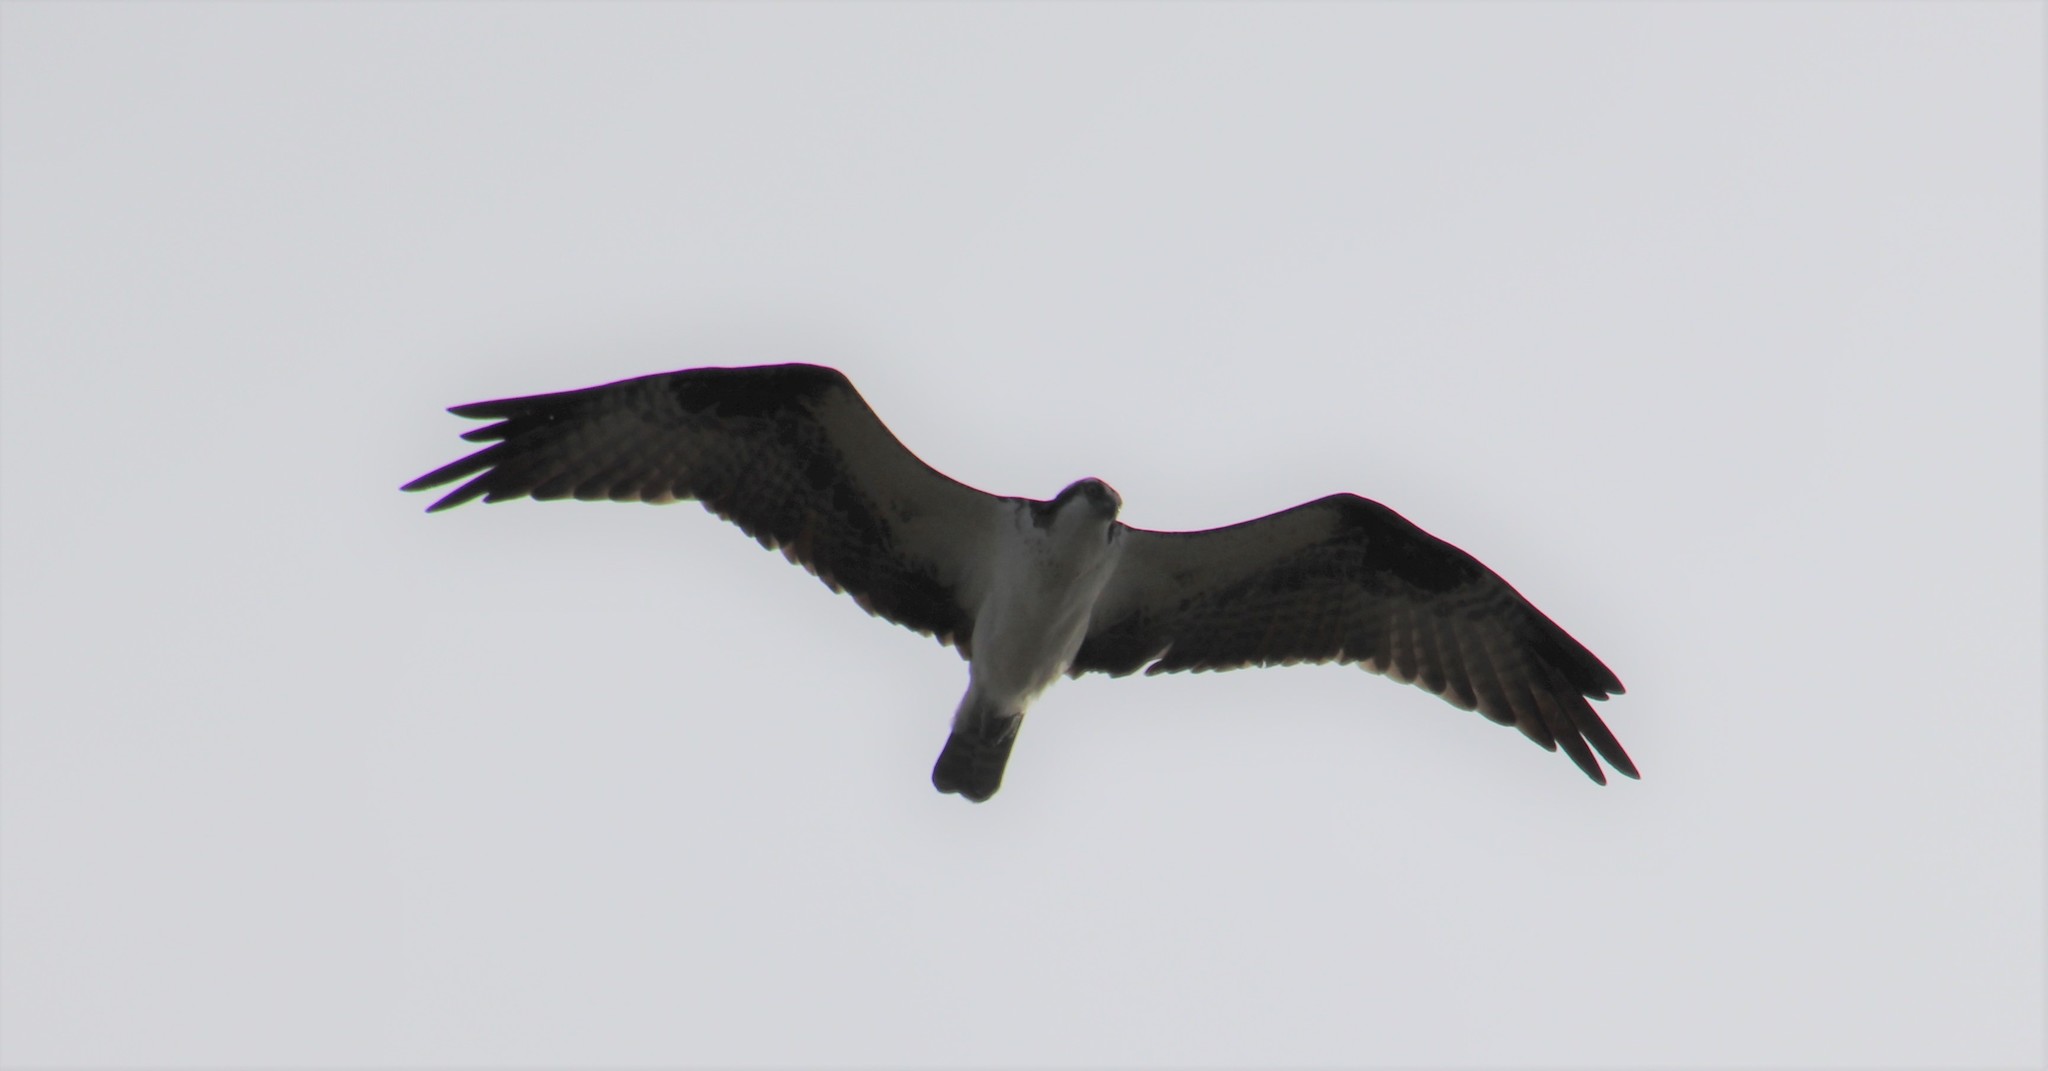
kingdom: Animalia
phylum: Chordata
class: Aves
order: Accipitriformes
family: Pandionidae
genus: Pandion
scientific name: Pandion haliaetus
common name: Osprey
